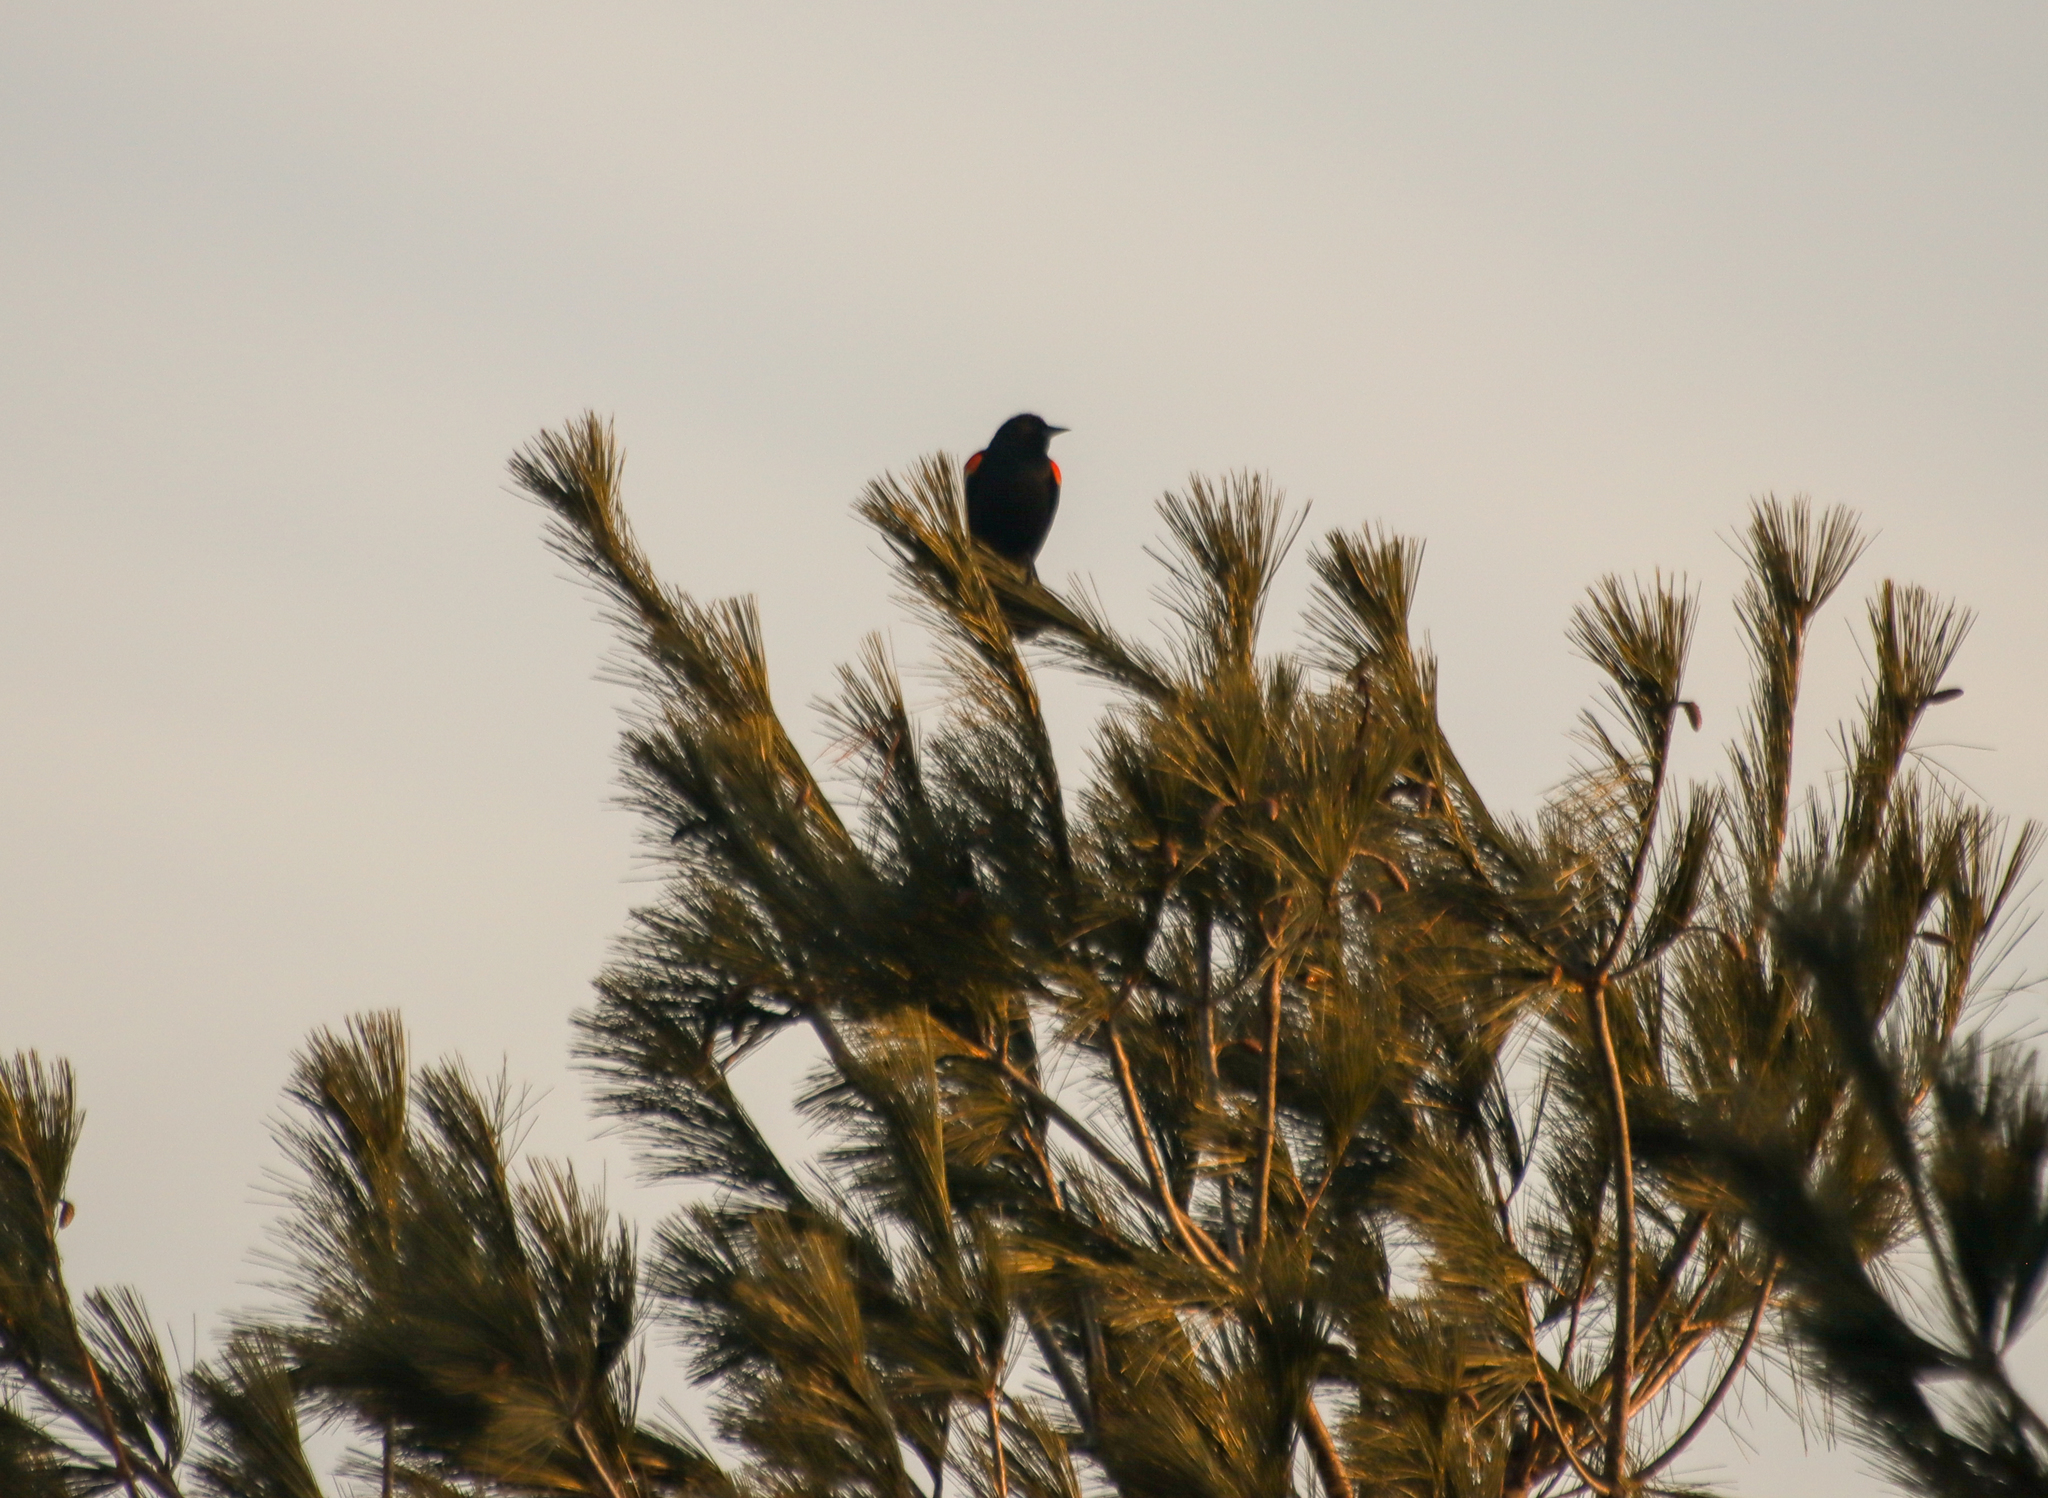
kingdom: Animalia
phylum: Chordata
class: Aves
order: Passeriformes
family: Icteridae
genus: Agelaius
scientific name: Agelaius phoeniceus
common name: Red-winged blackbird
